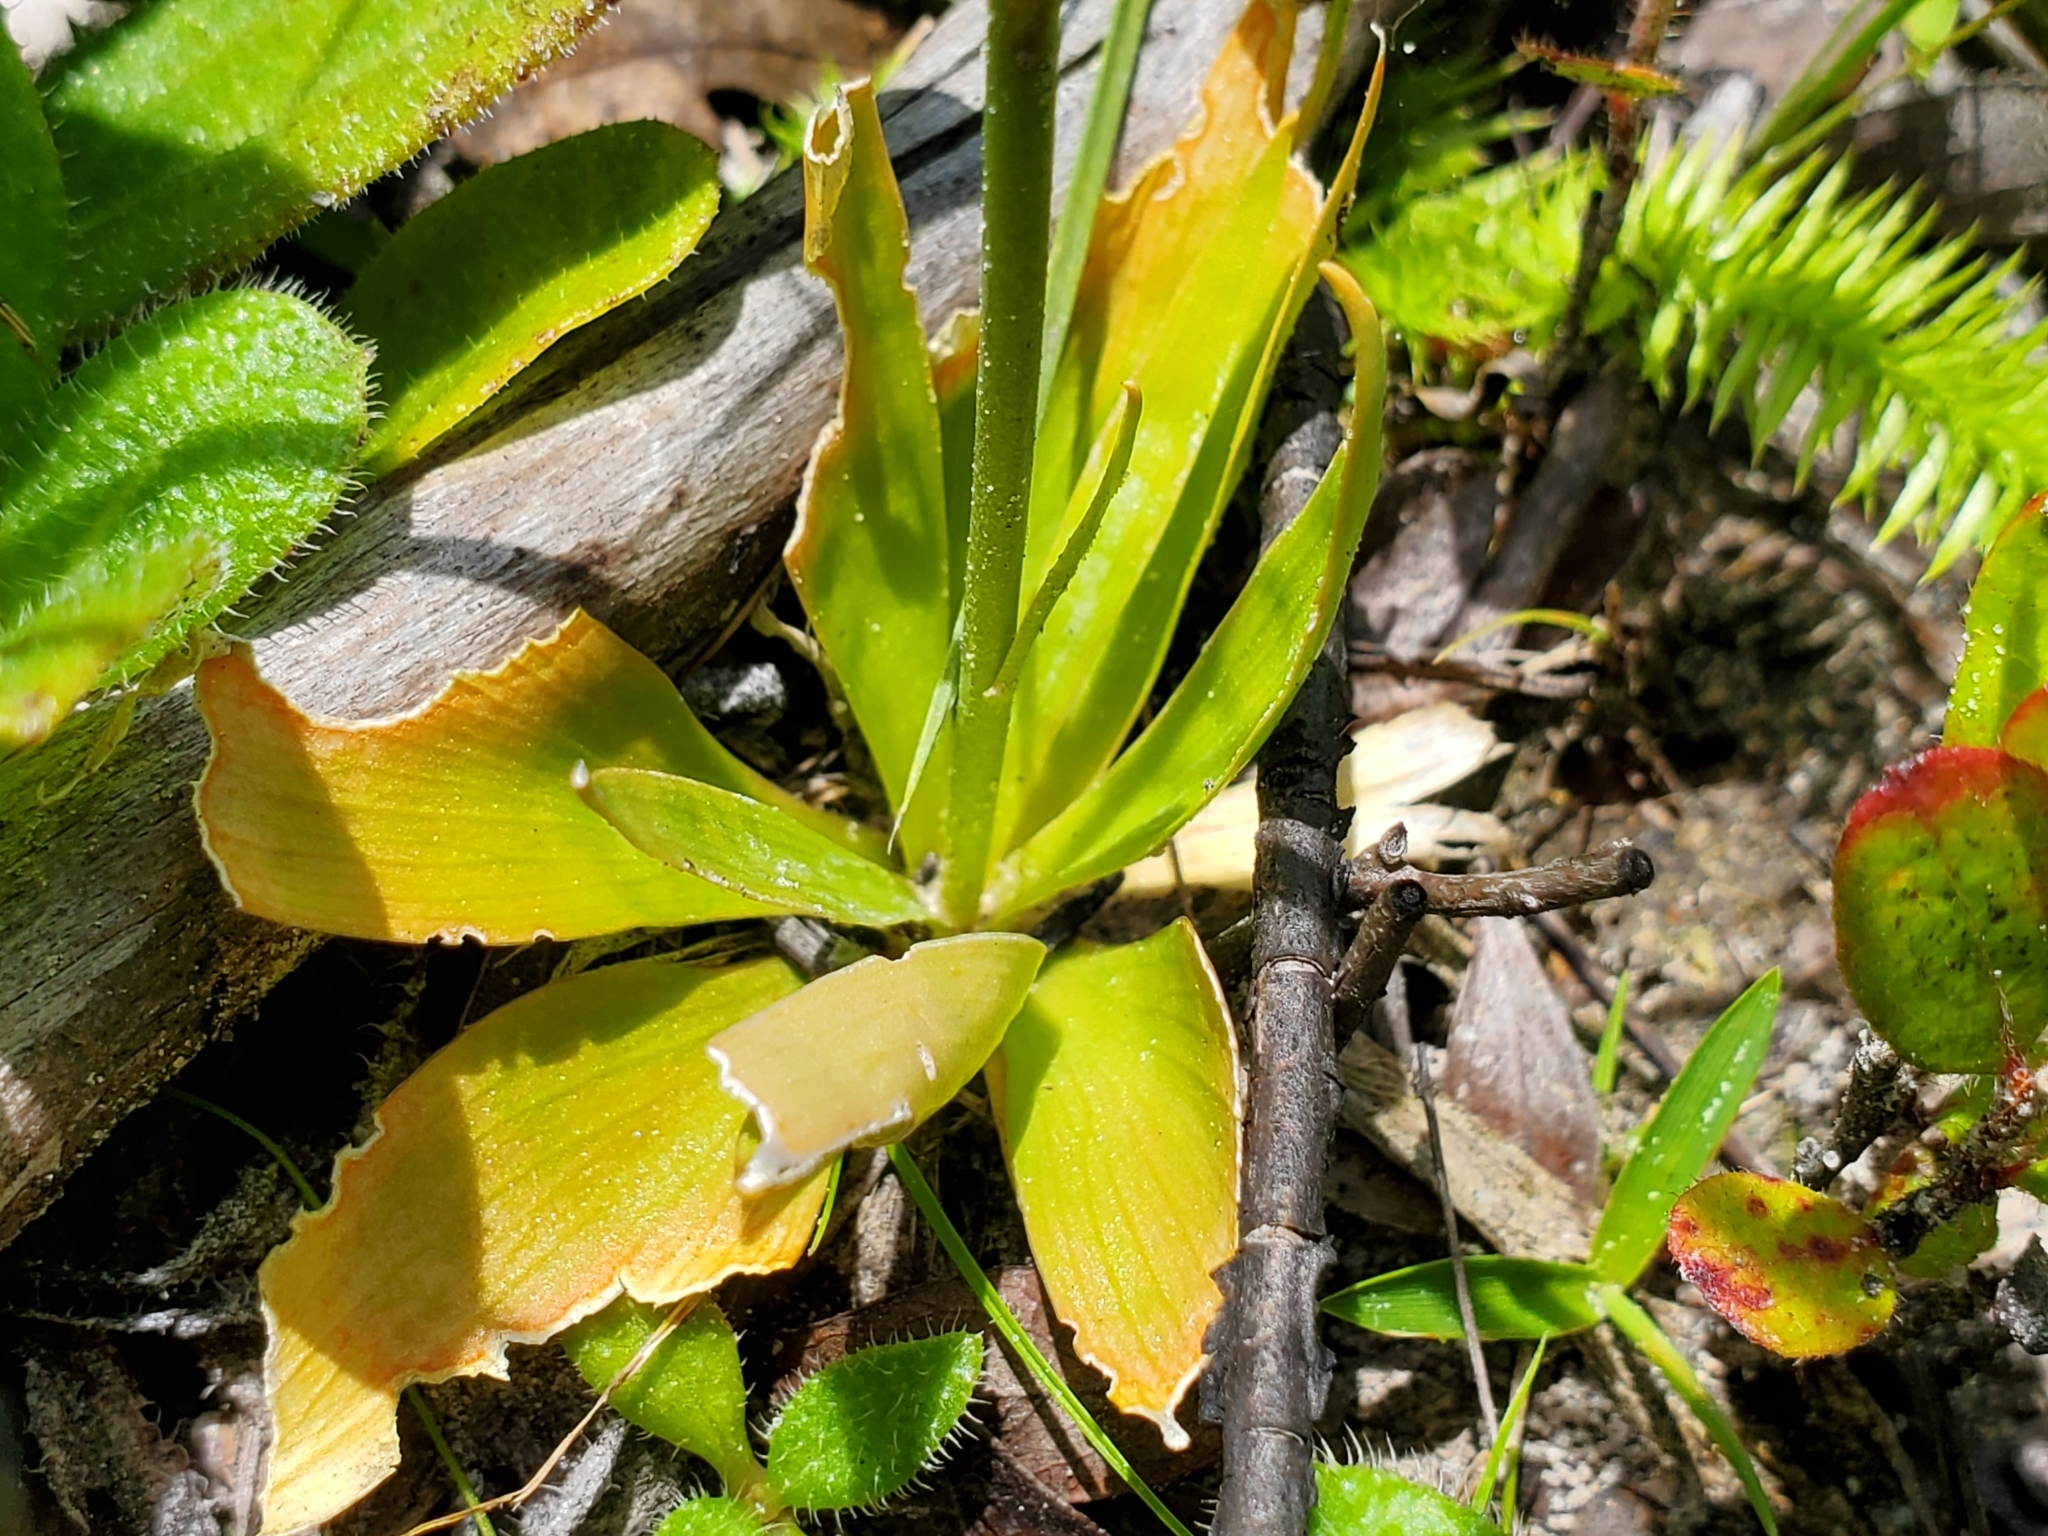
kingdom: Plantae
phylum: Tracheophyta
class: Liliopsida
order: Dioscoreales
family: Nartheciaceae
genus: Aletris
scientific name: Aletris aurea
